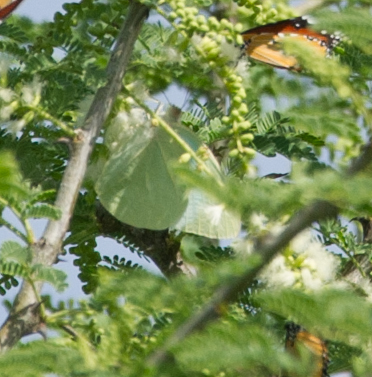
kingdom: Animalia
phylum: Arthropoda
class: Insecta
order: Lepidoptera
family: Pieridae
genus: Catopsilia
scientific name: Catopsilia florella
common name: African migrant
